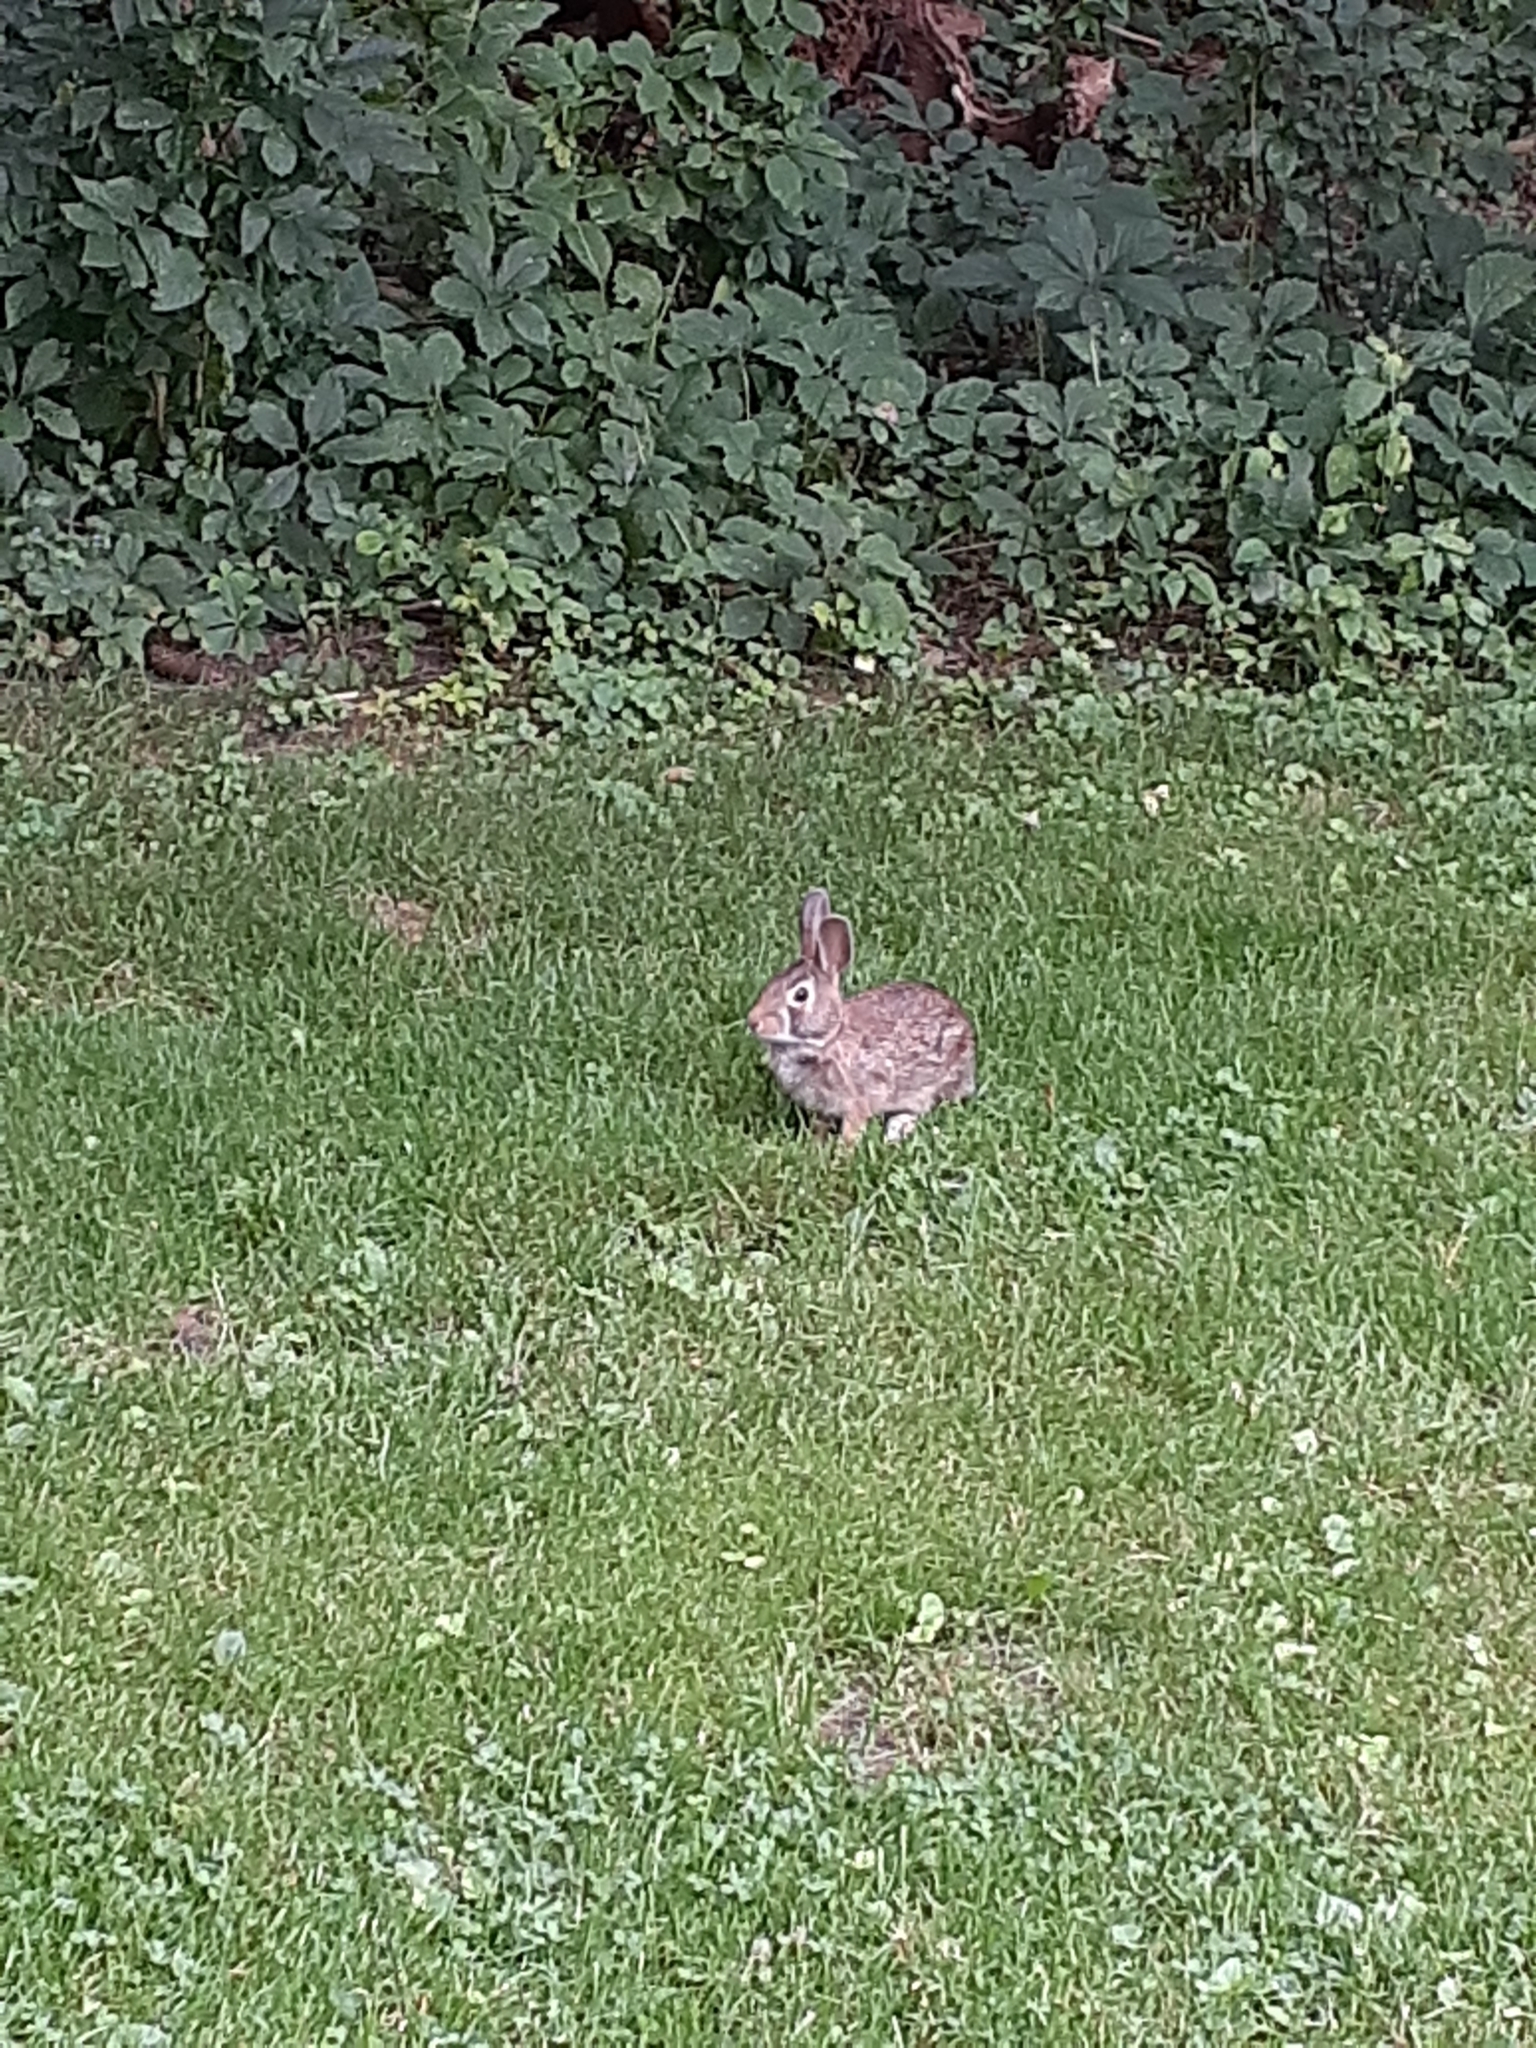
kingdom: Animalia
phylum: Chordata
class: Mammalia
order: Lagomorpha
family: Leporidae
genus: Sylvilagus
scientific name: Sylvilagus floridanus
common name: Eastern cottontail
